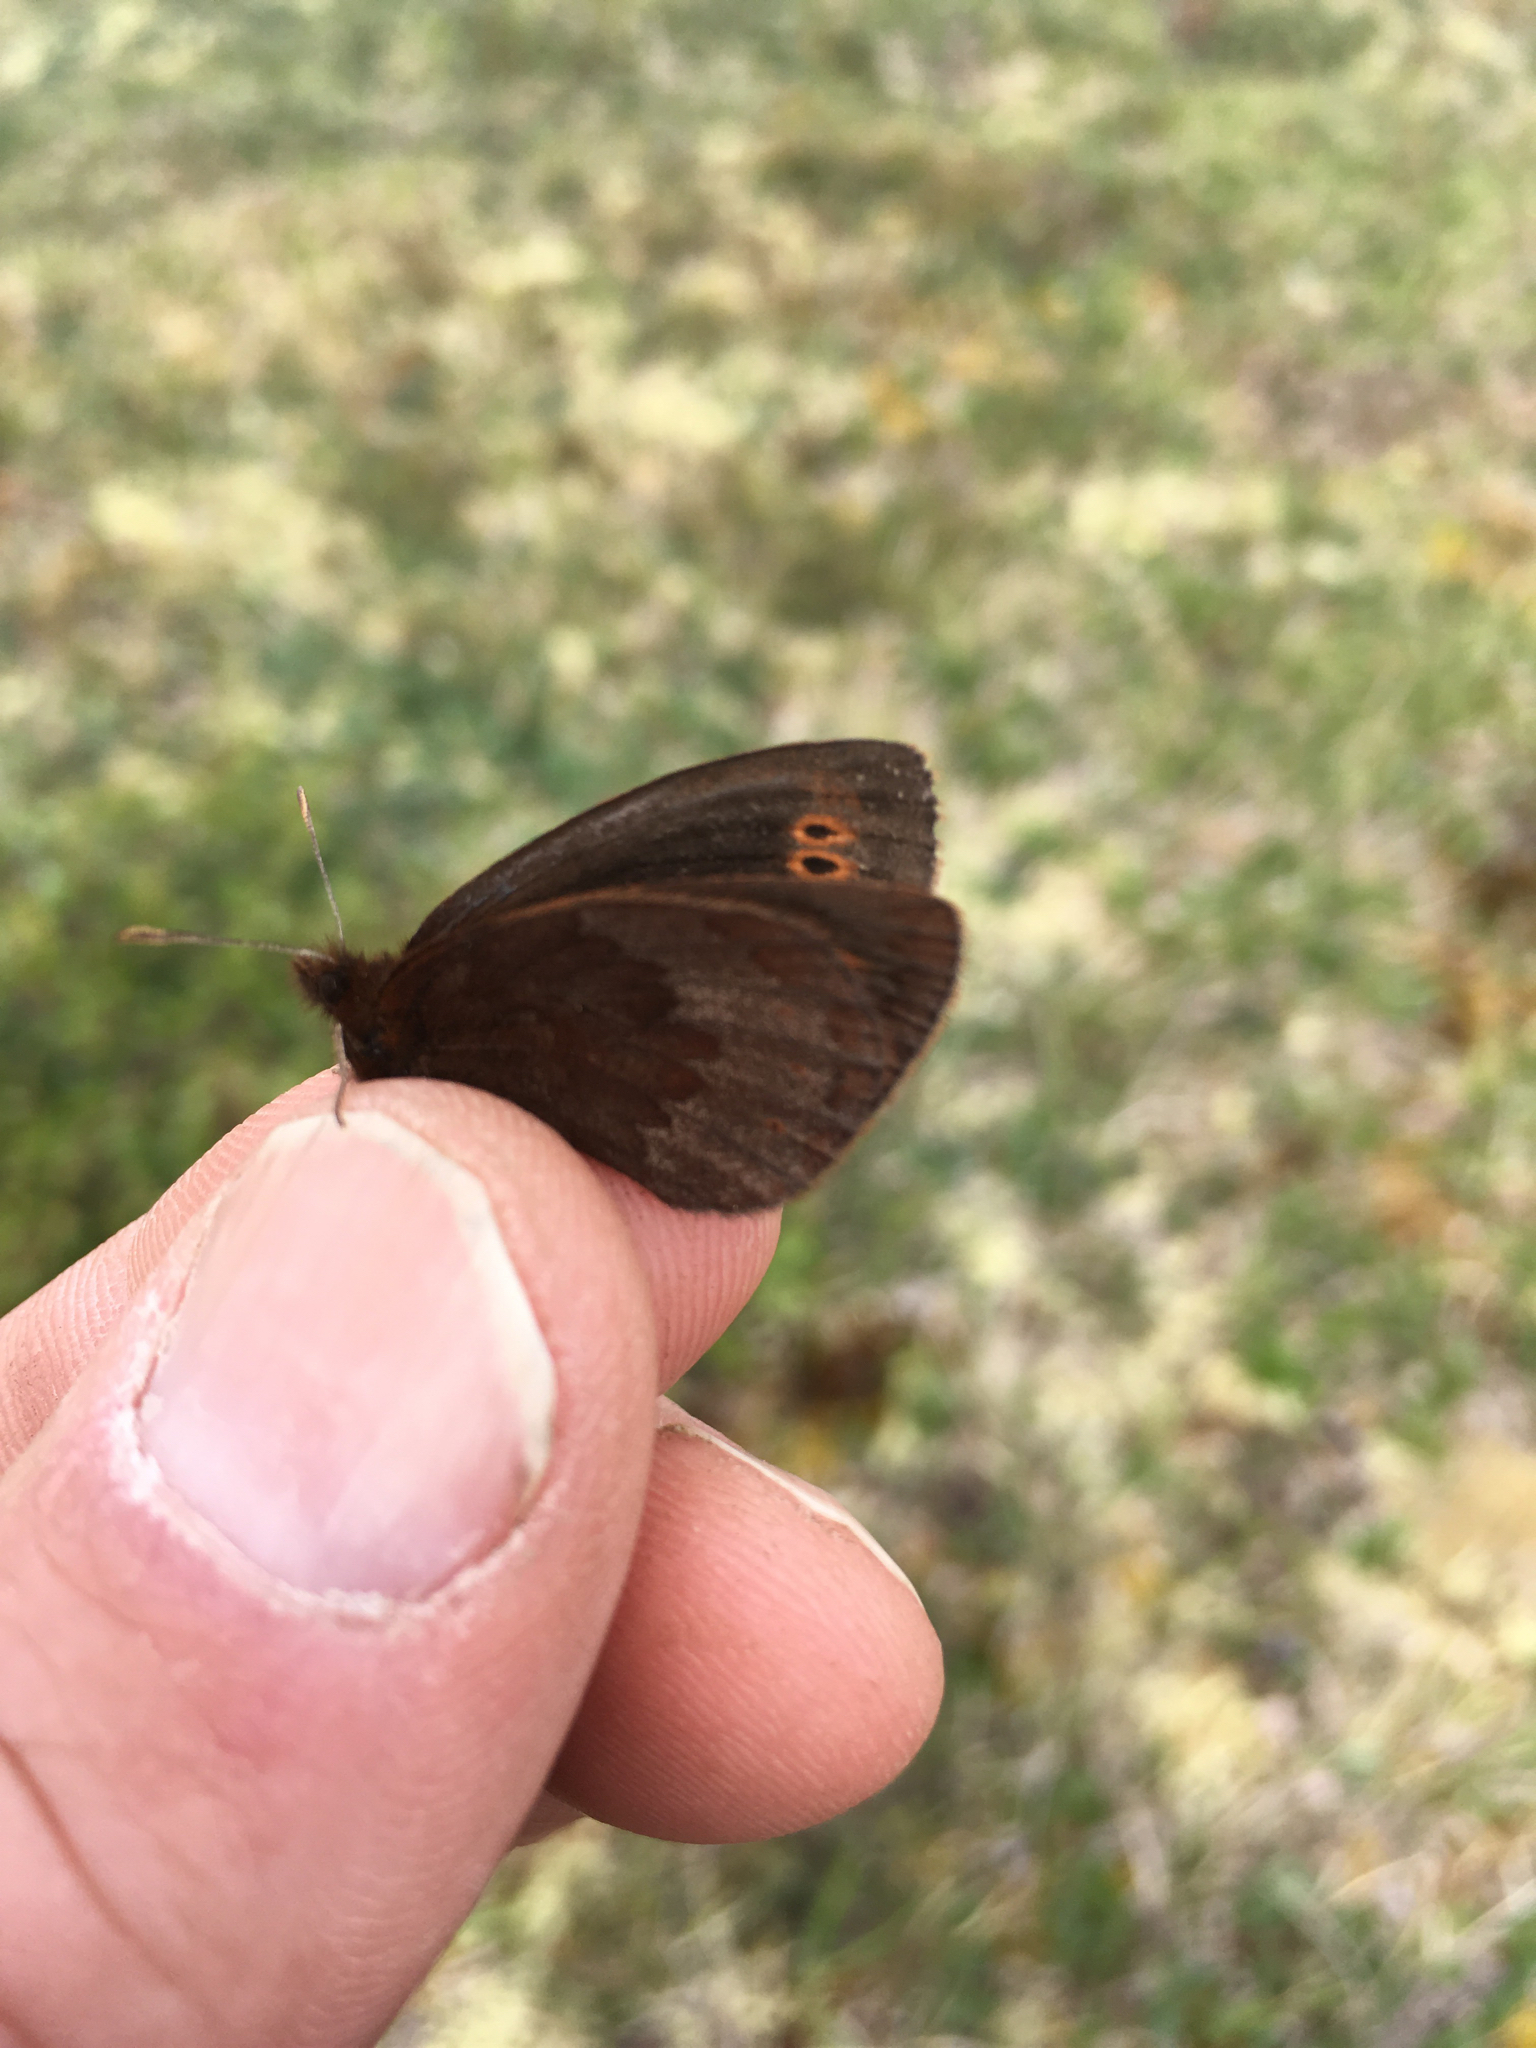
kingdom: Animalia
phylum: Arthropoda
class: Insecta
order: Lepidoptera
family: Nymphalidae
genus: Erebia
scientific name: Erebia youngi
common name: Four-dotted alpine
